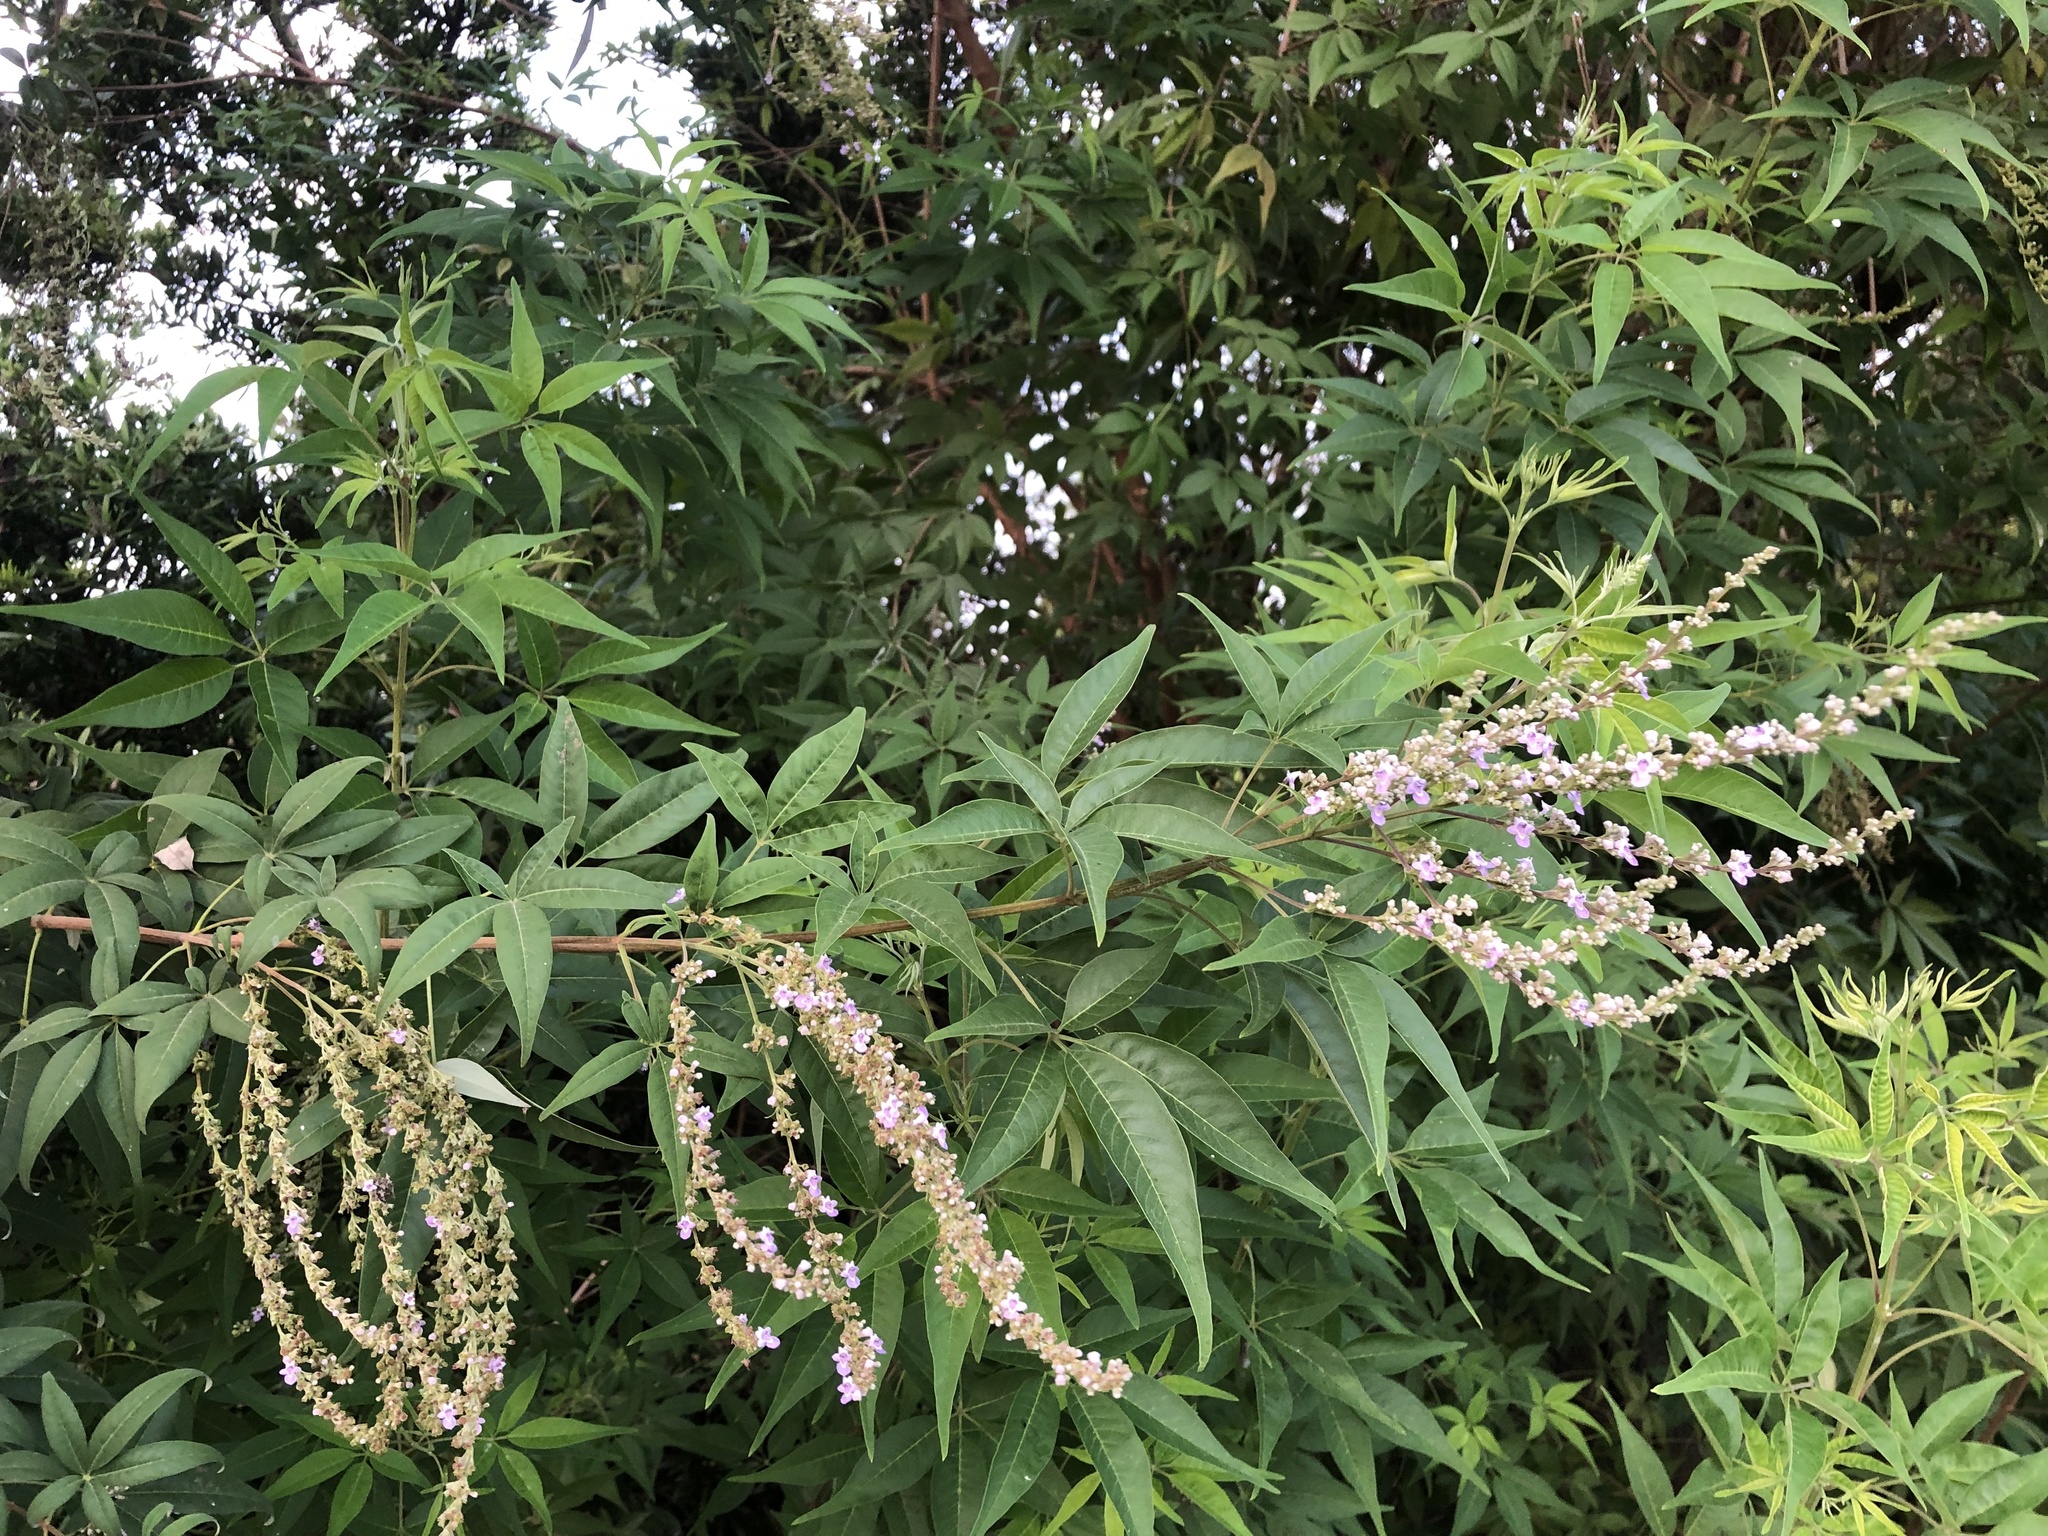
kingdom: Plantae
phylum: Tracheophyta
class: Magnoliopsida
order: Lamiales
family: Lamiaceae
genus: Vitex
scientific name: Vitex negundo
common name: Chinese chastetree
